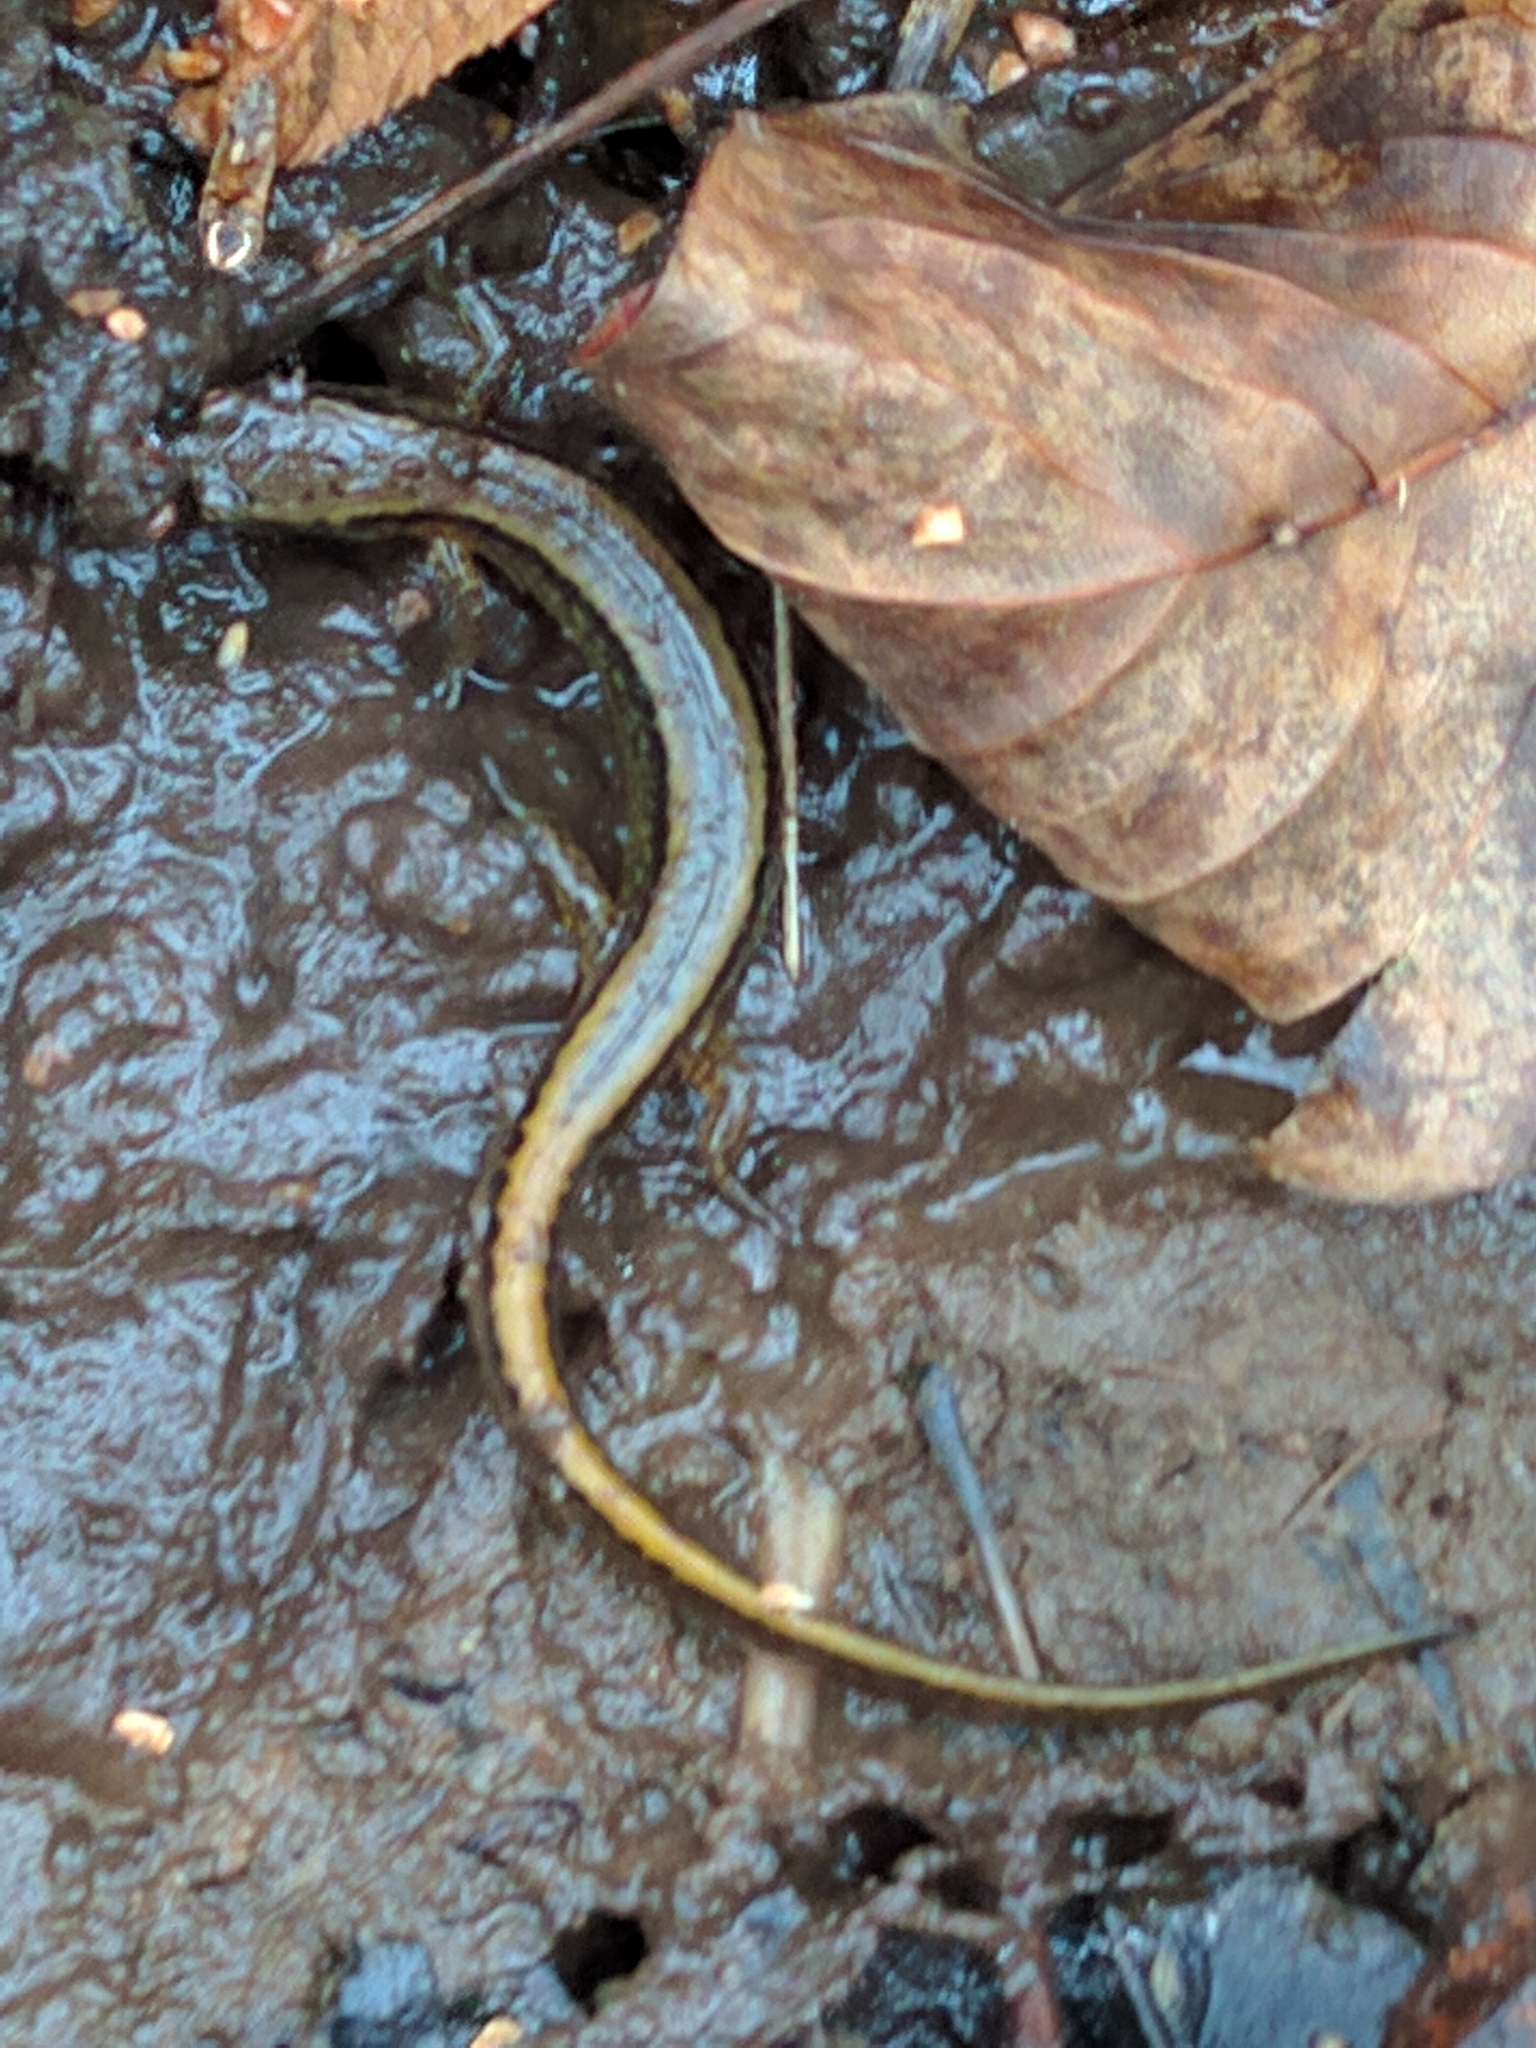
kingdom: Animalia
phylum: Chordata
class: Amphibia
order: Caudata
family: Plethodontidae
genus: Eurycea
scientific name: Eurycea bislineata
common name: Northern two-lined salamander
